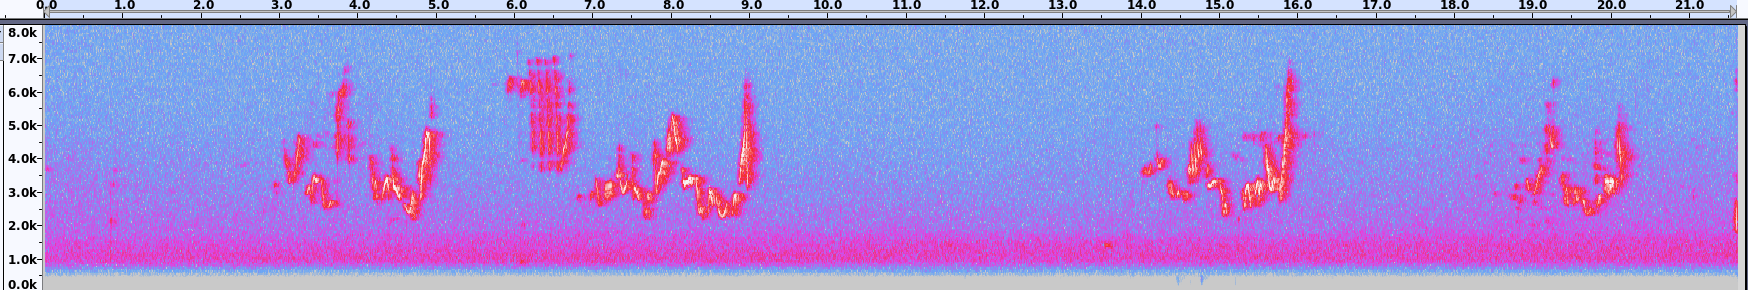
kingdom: Animalia
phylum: Chordata
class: Aves
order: Passeriformes
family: Vireonidae
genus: Vireo
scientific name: Vireo gilvus
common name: Warbling vireo
